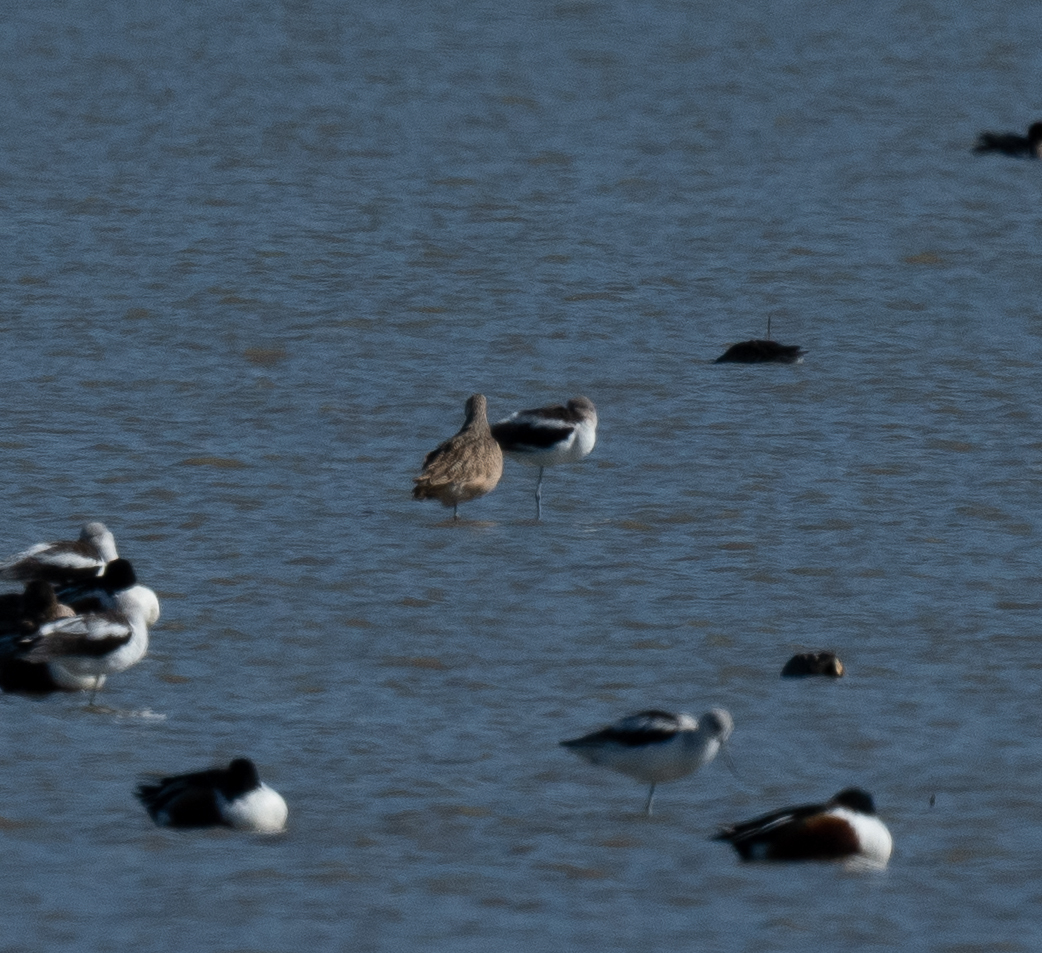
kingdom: Animalia
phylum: Chordata
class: Aves
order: Charadriiformes
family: Scolopacidae
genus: Limosa
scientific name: Limosa fedoa
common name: Marbled godwit
